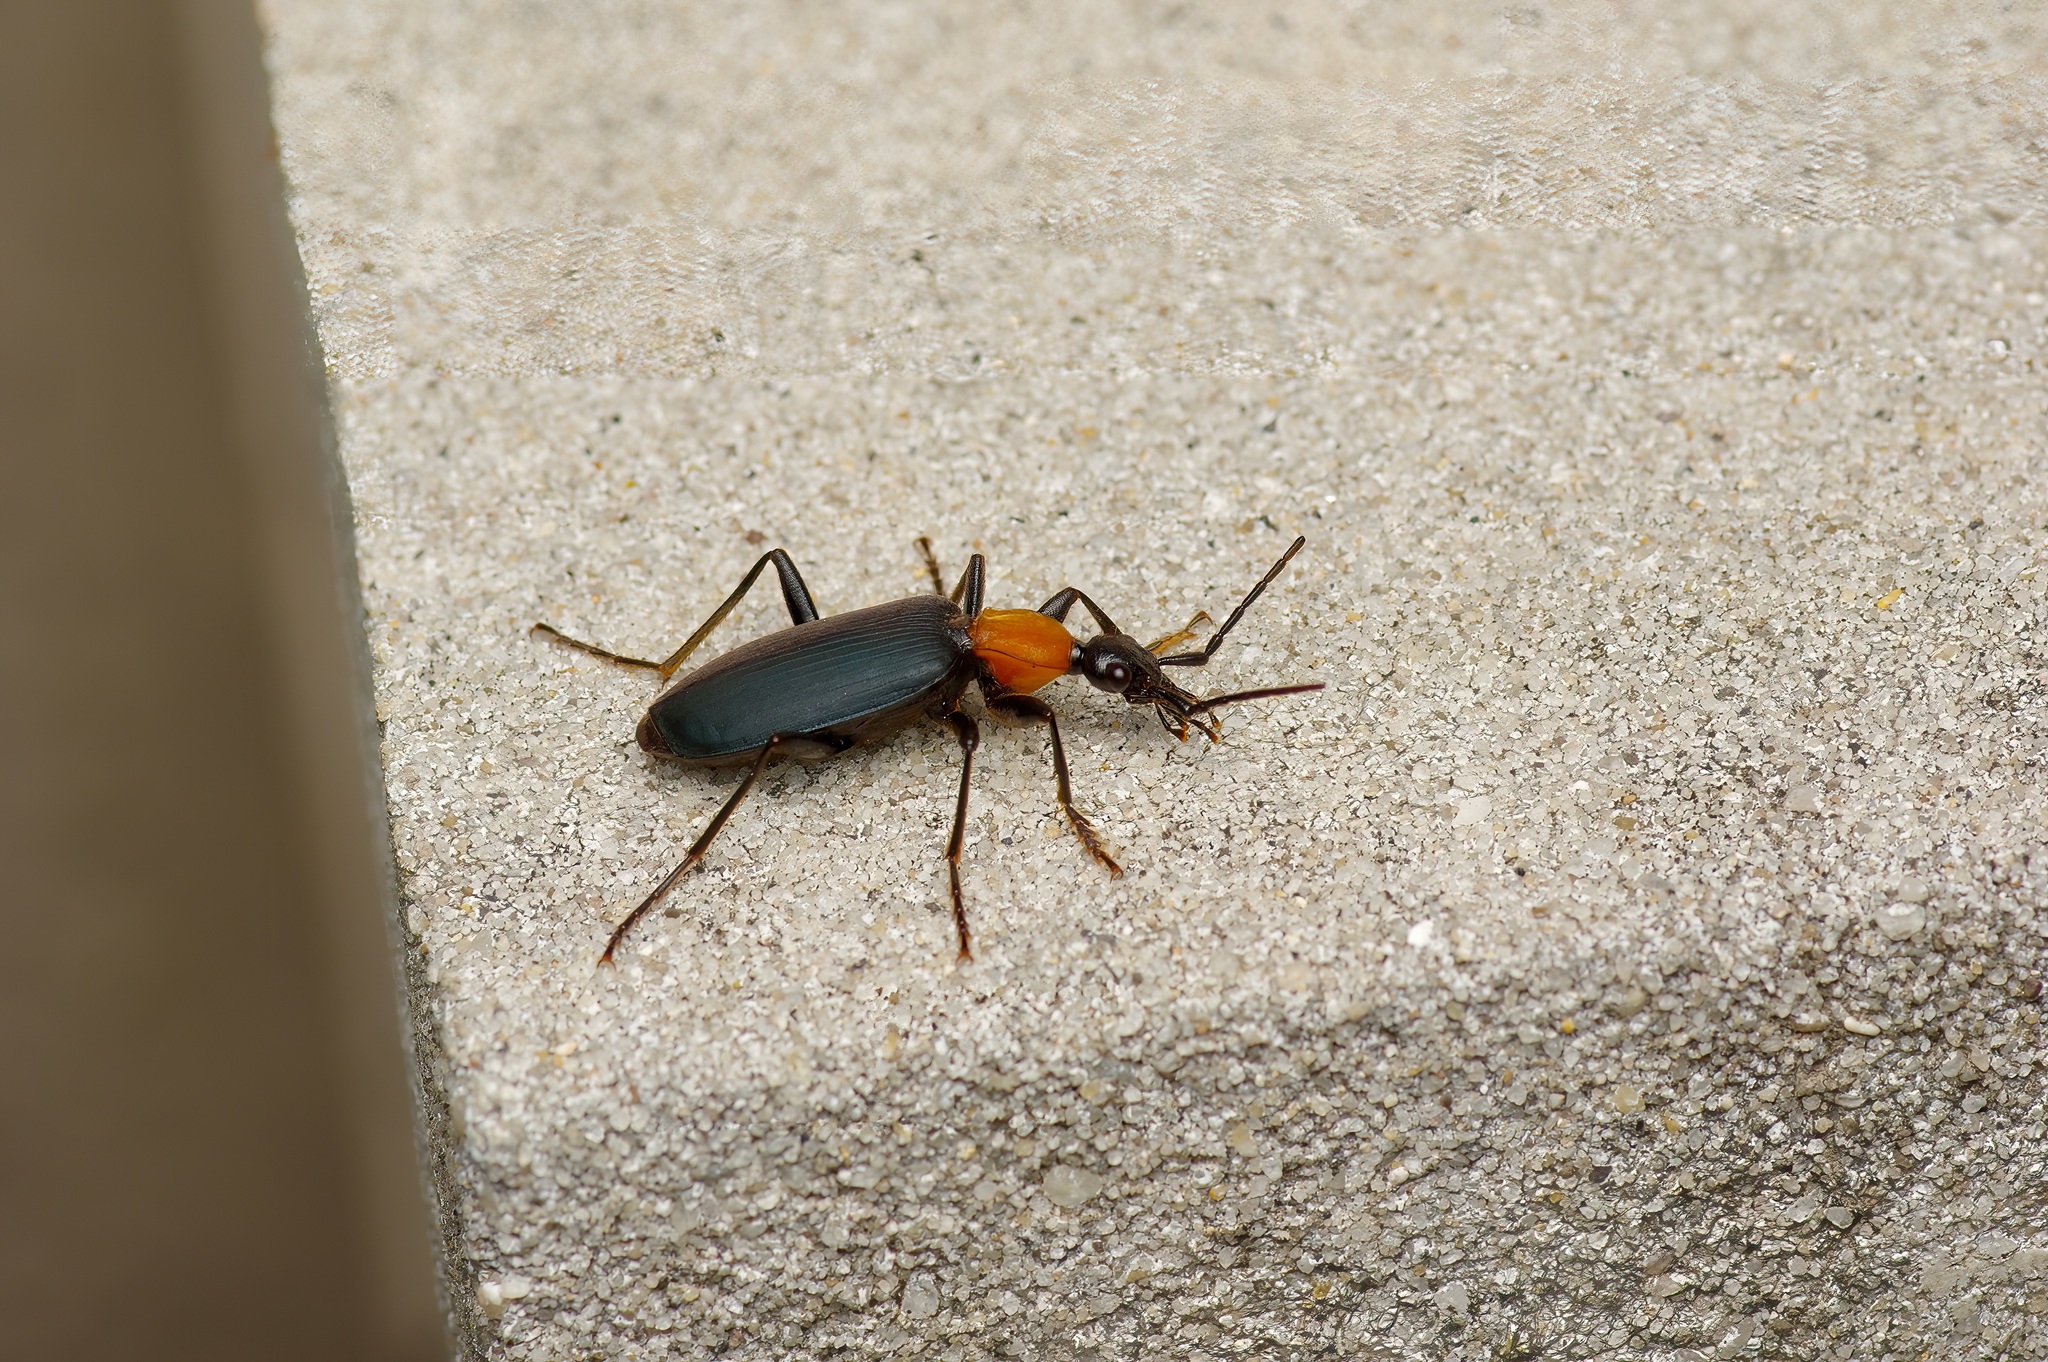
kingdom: Animalia
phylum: Arthropoda
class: Insecta
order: Coleoptera
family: Carabidae
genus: Galerita
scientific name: Galerita mexicana
